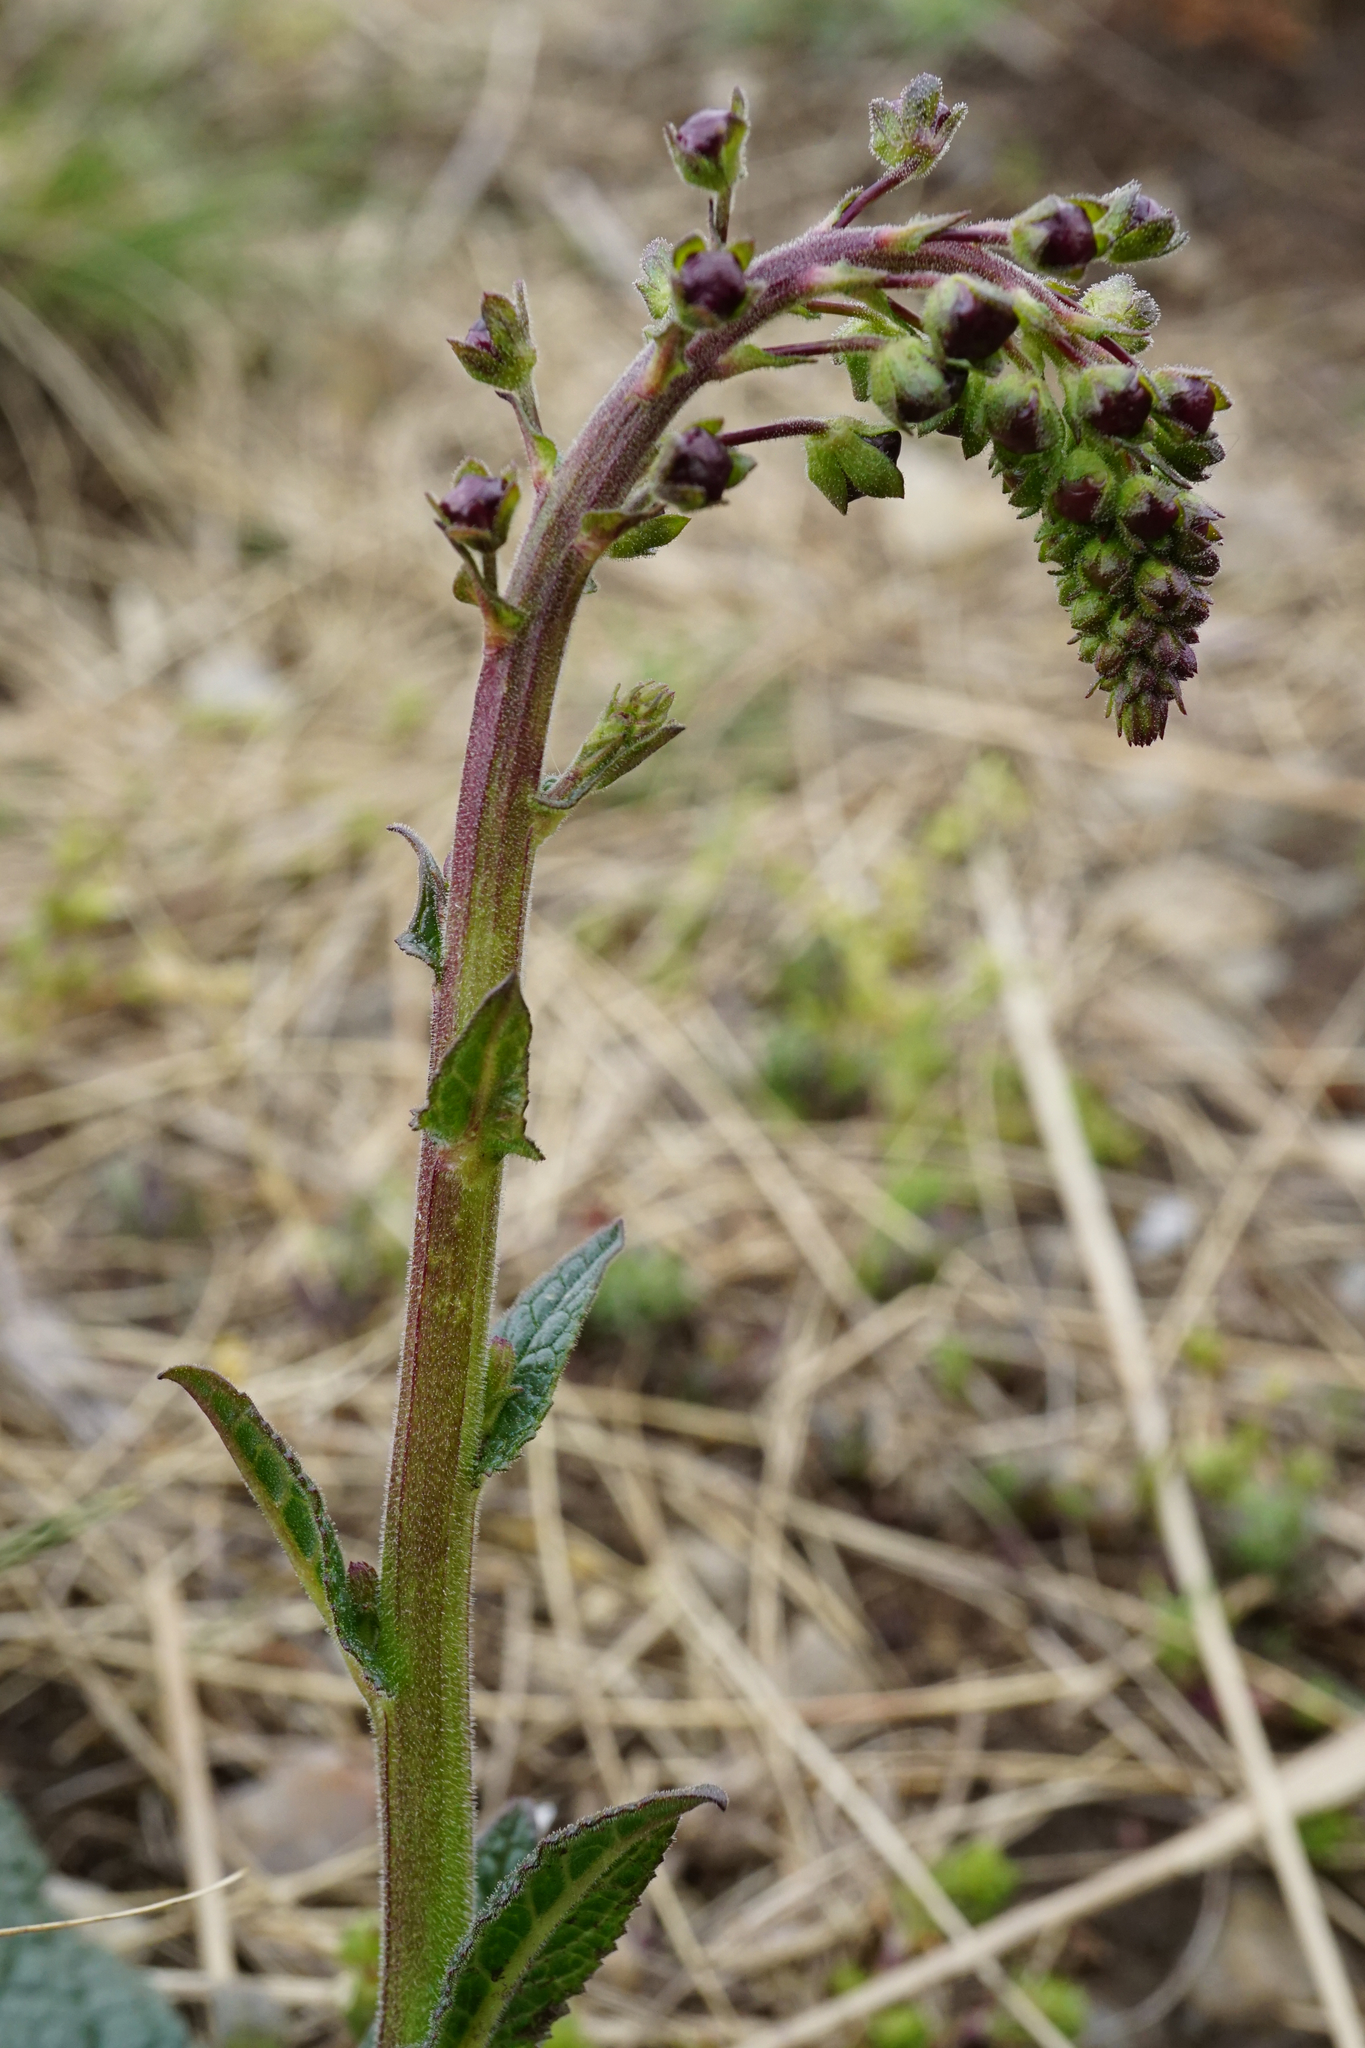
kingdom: Plantae
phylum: Tracheophyta
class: Magnoliopsida
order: Lamiales
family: Scrophulariaceae
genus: Verbascum
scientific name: Verbascum phoeniceum
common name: Purple mullein
